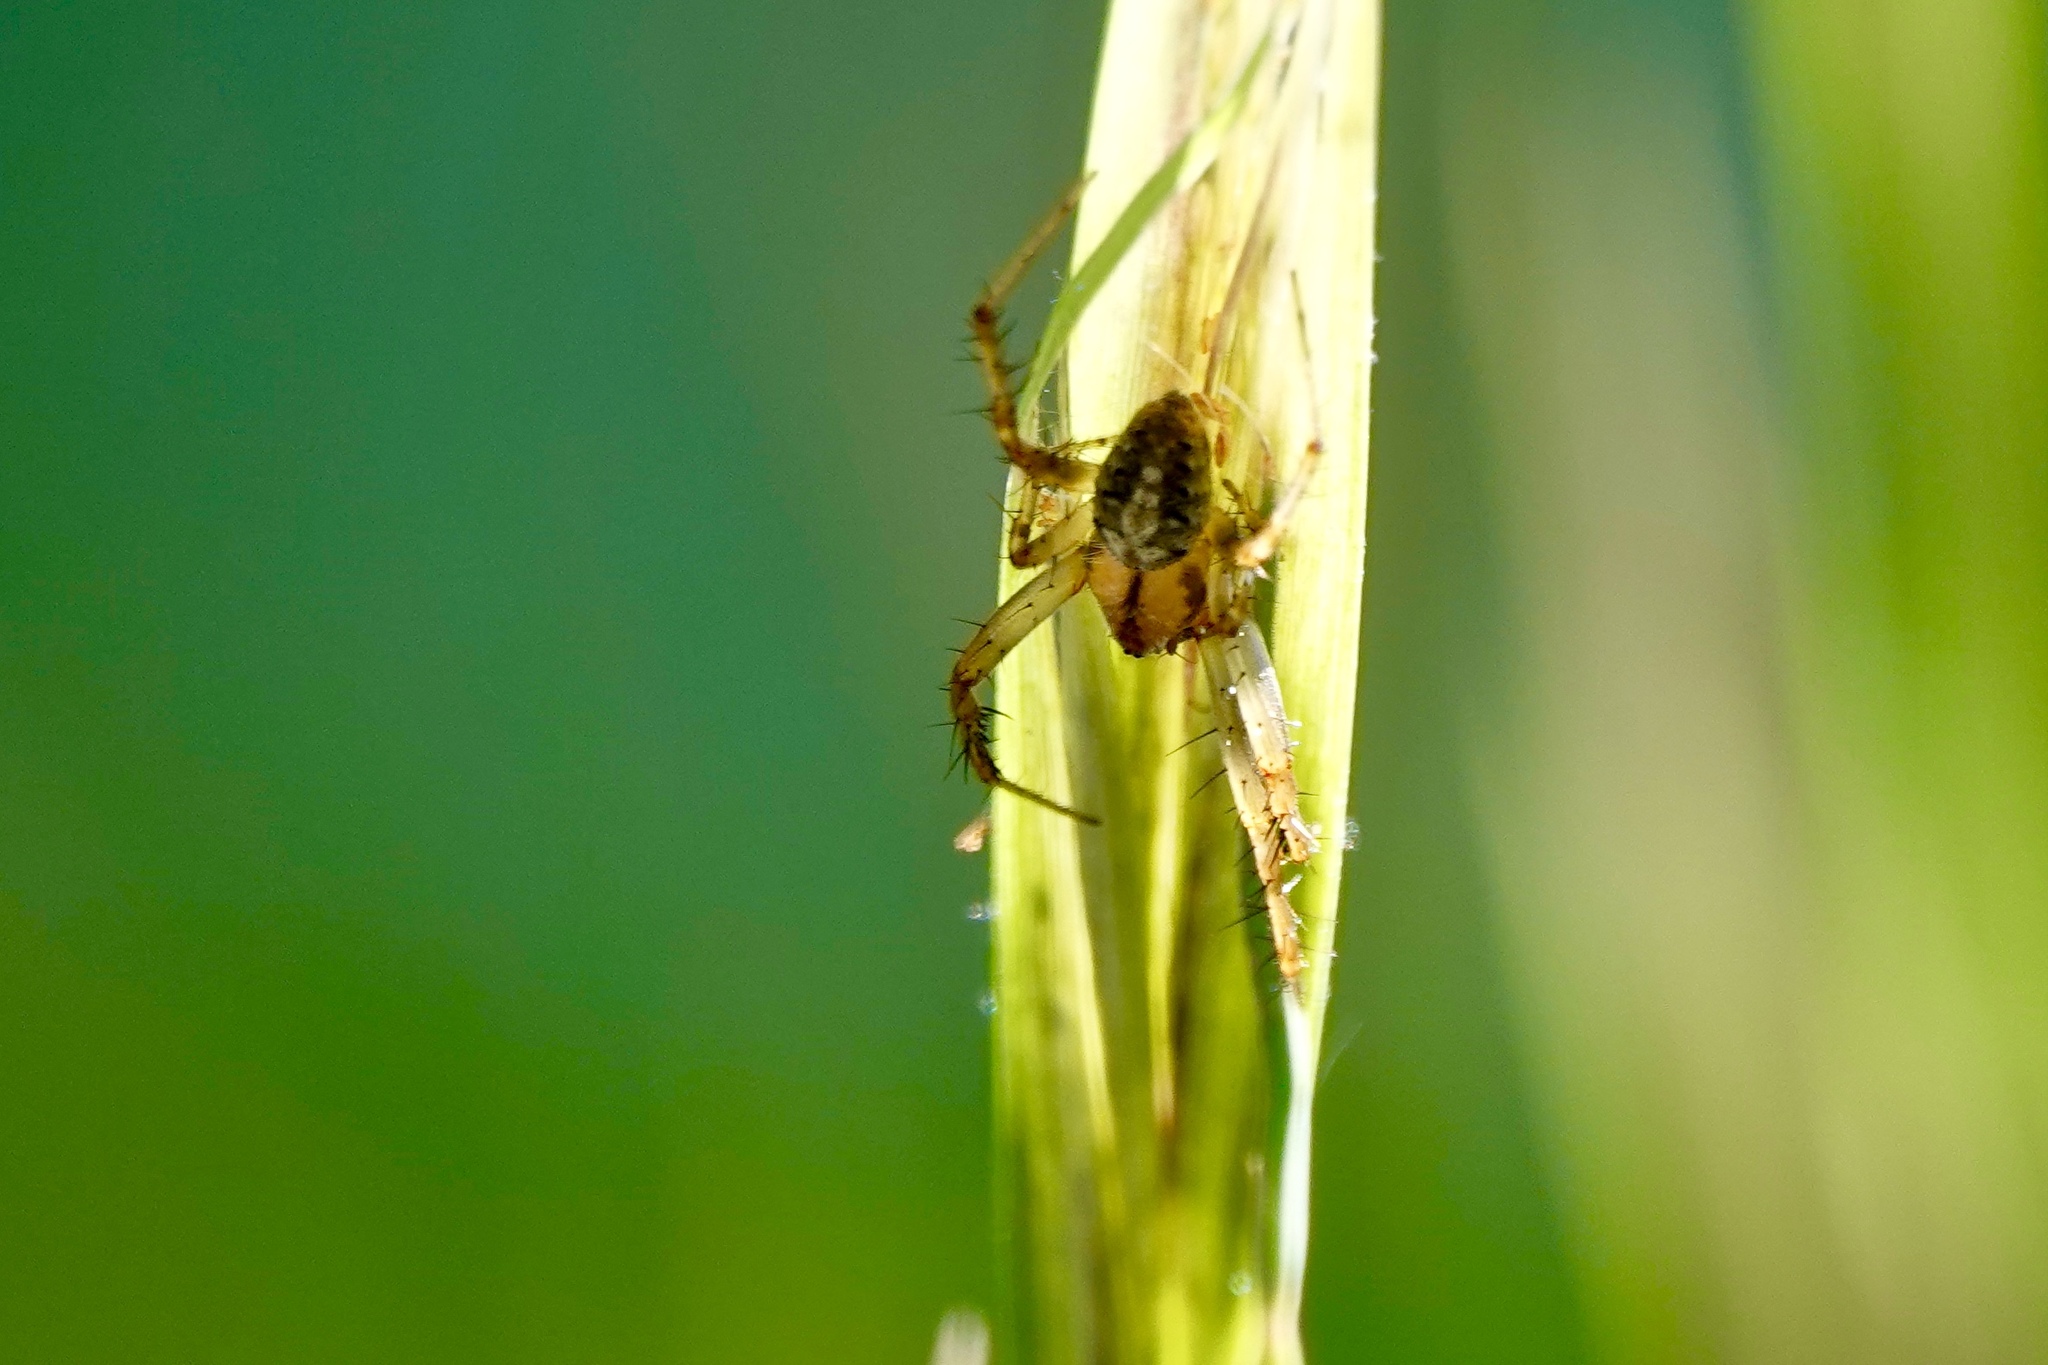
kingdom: Animalia
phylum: Arthropoda
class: Arachnida
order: Araneae
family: Araneidae
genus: Neoscona
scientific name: Neoscona arabesca
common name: Orb weavers
